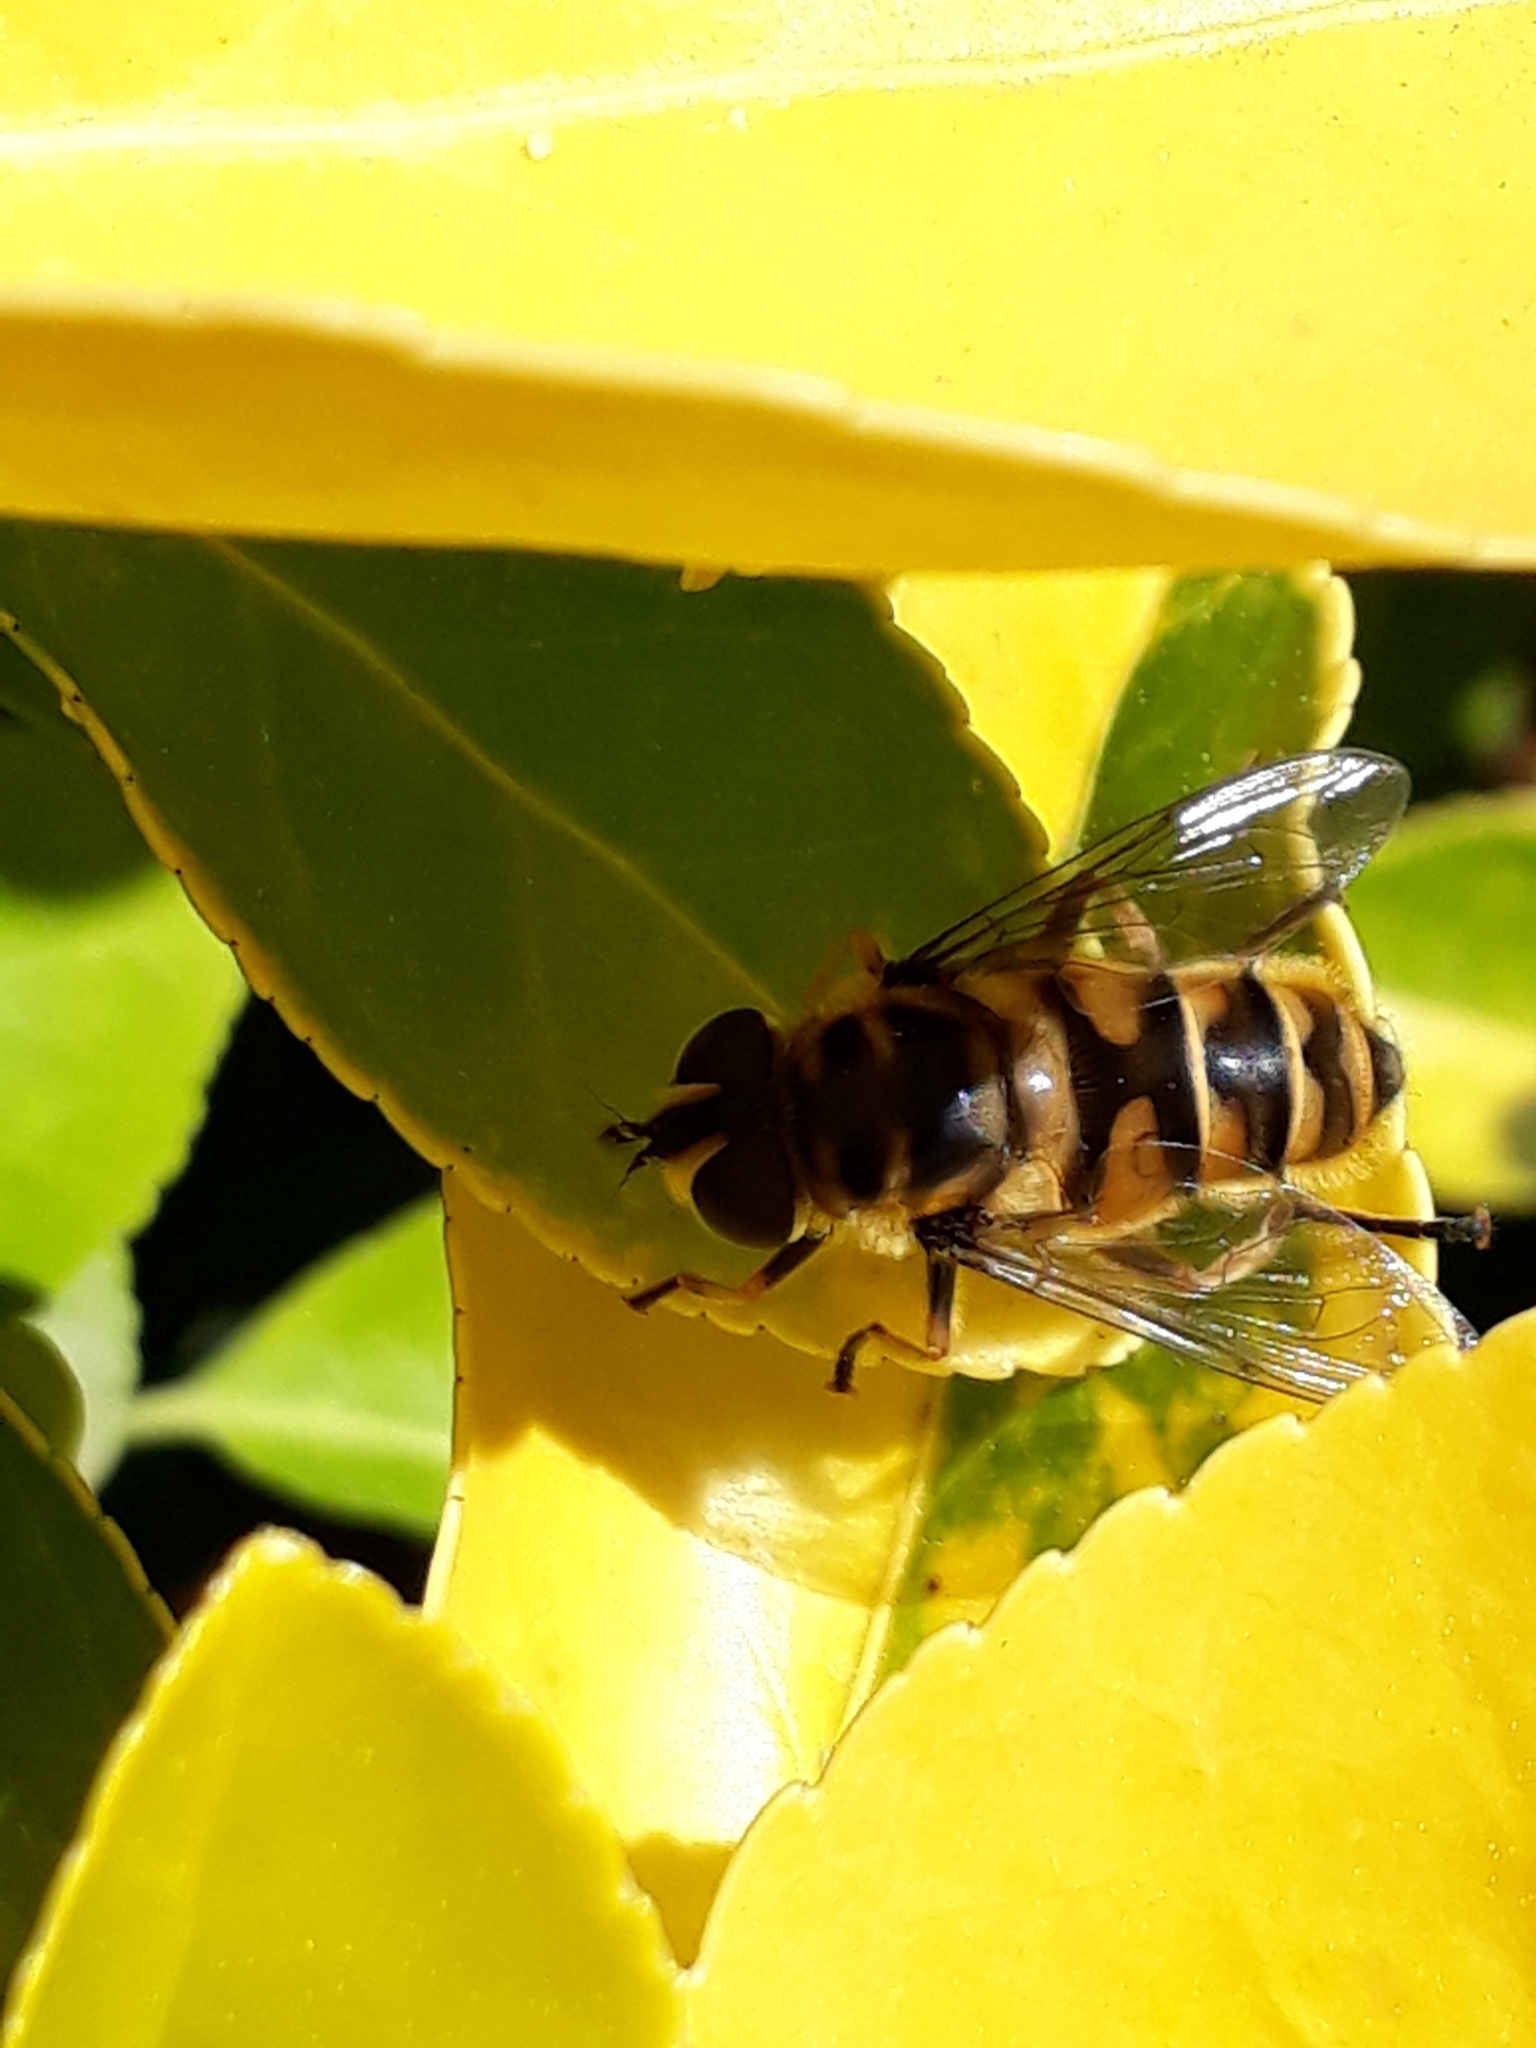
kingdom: Animalia
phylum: Arthropoda
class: Insecta
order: Diptera
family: Syrphidae
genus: Myathropa
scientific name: Myathropa florea
